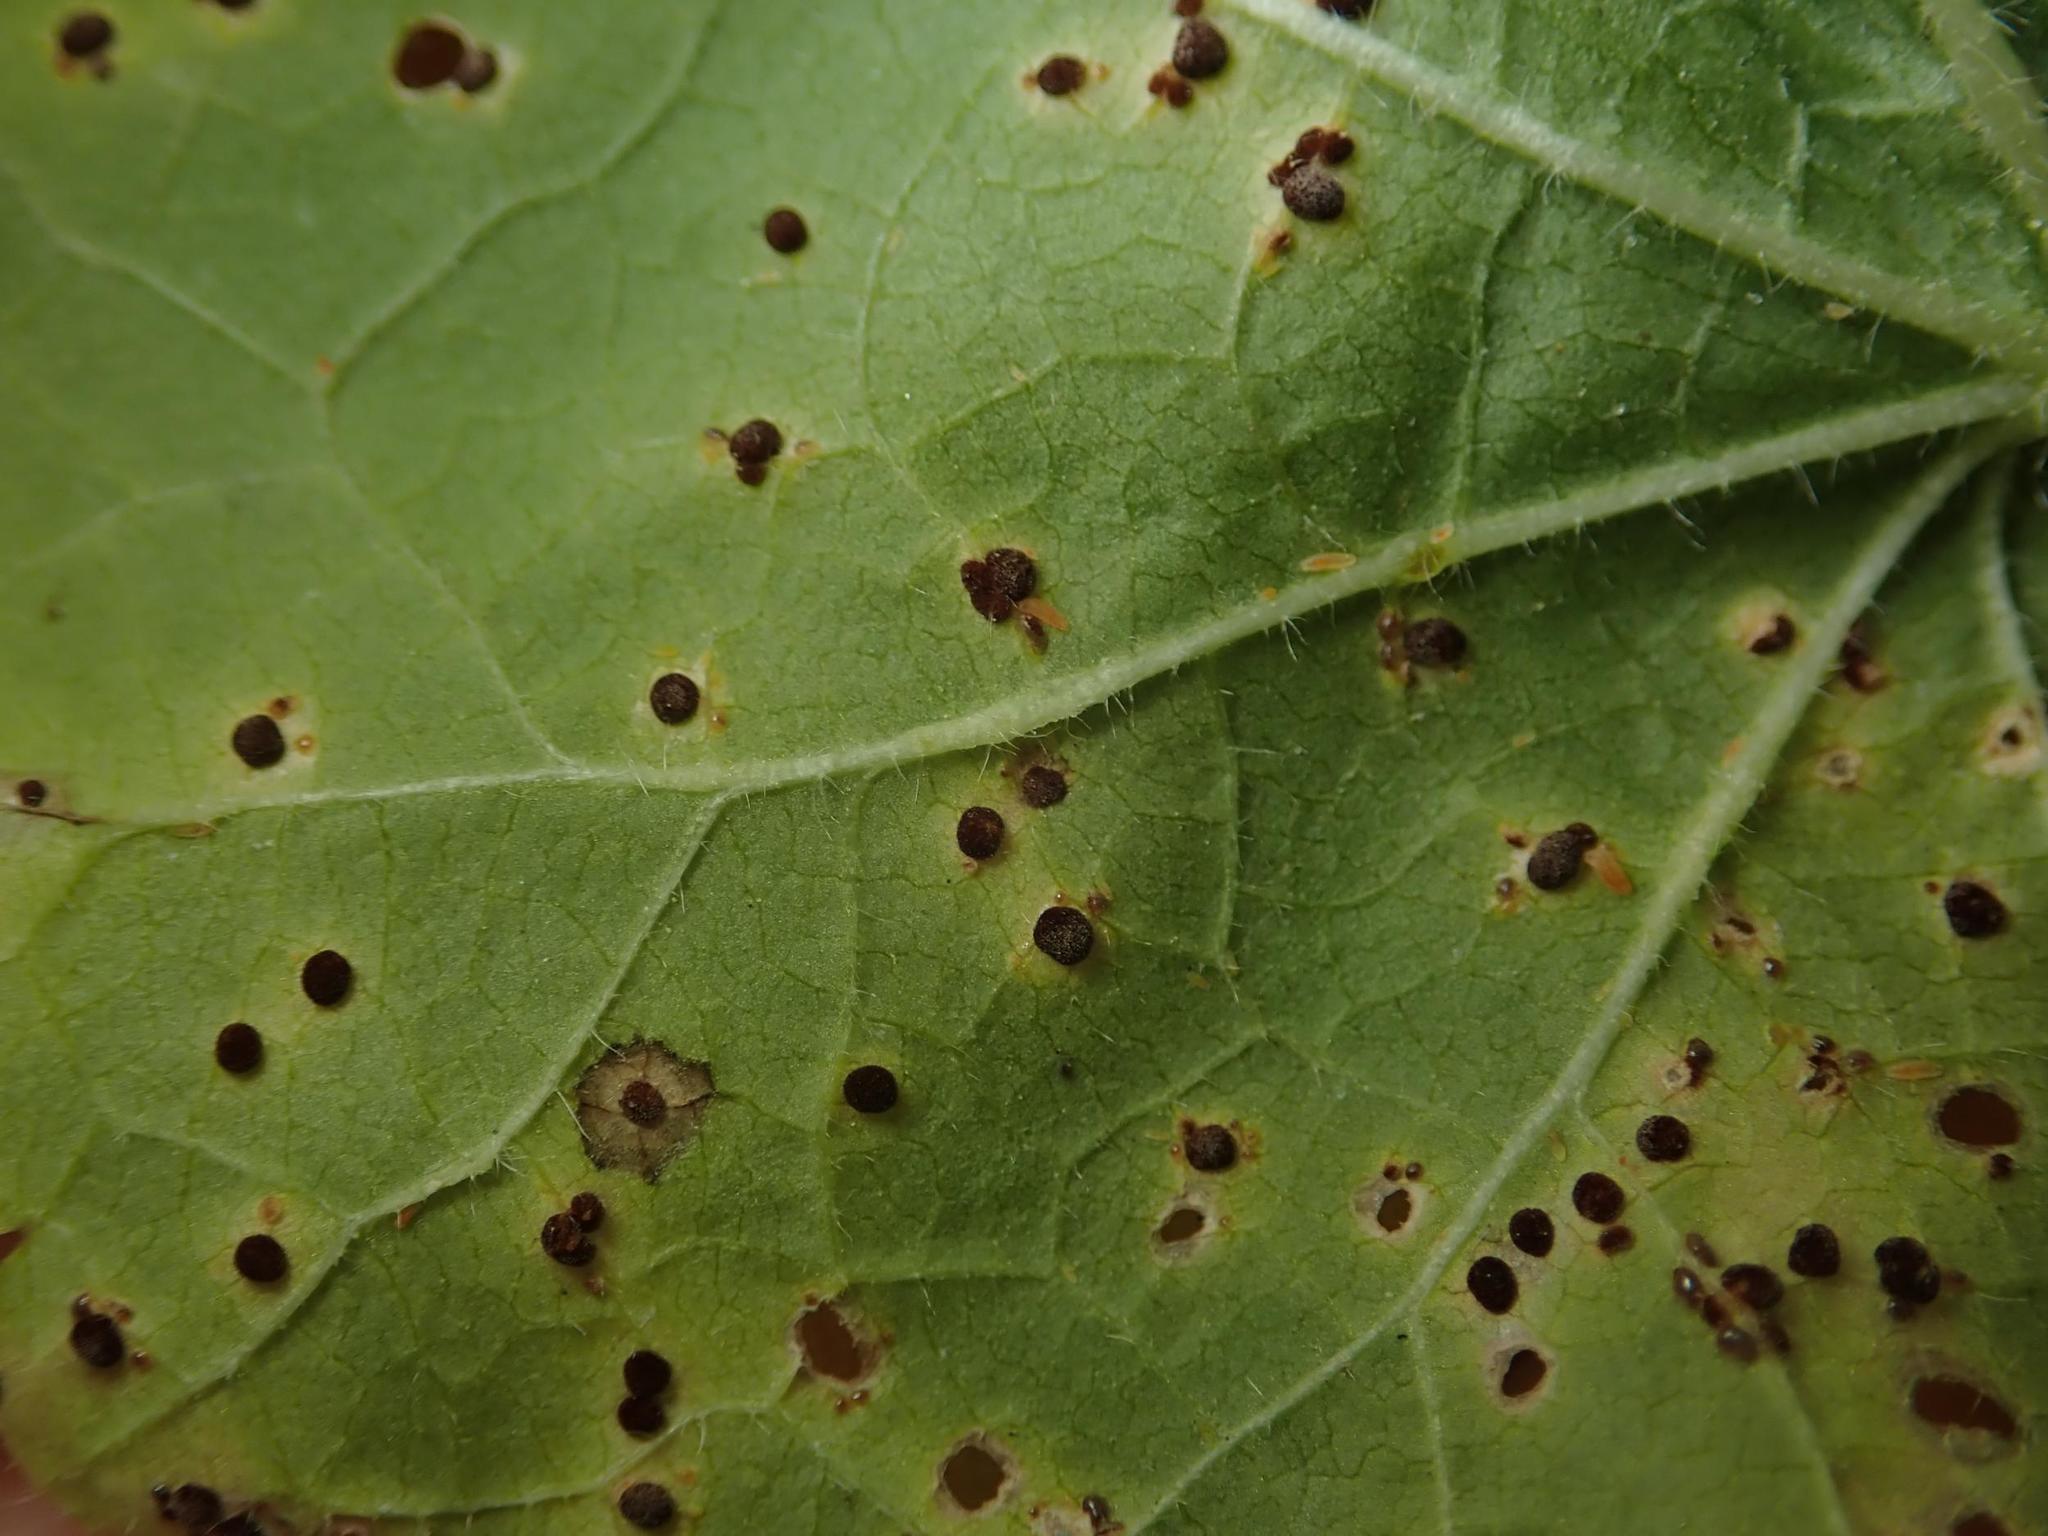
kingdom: Fungi
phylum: Basidiomycota
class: Pucciniomycetes
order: Pucciniales
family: Pucciniaceae
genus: Puccinia
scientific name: Puccinia malvacearum
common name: Hollyhock rust
